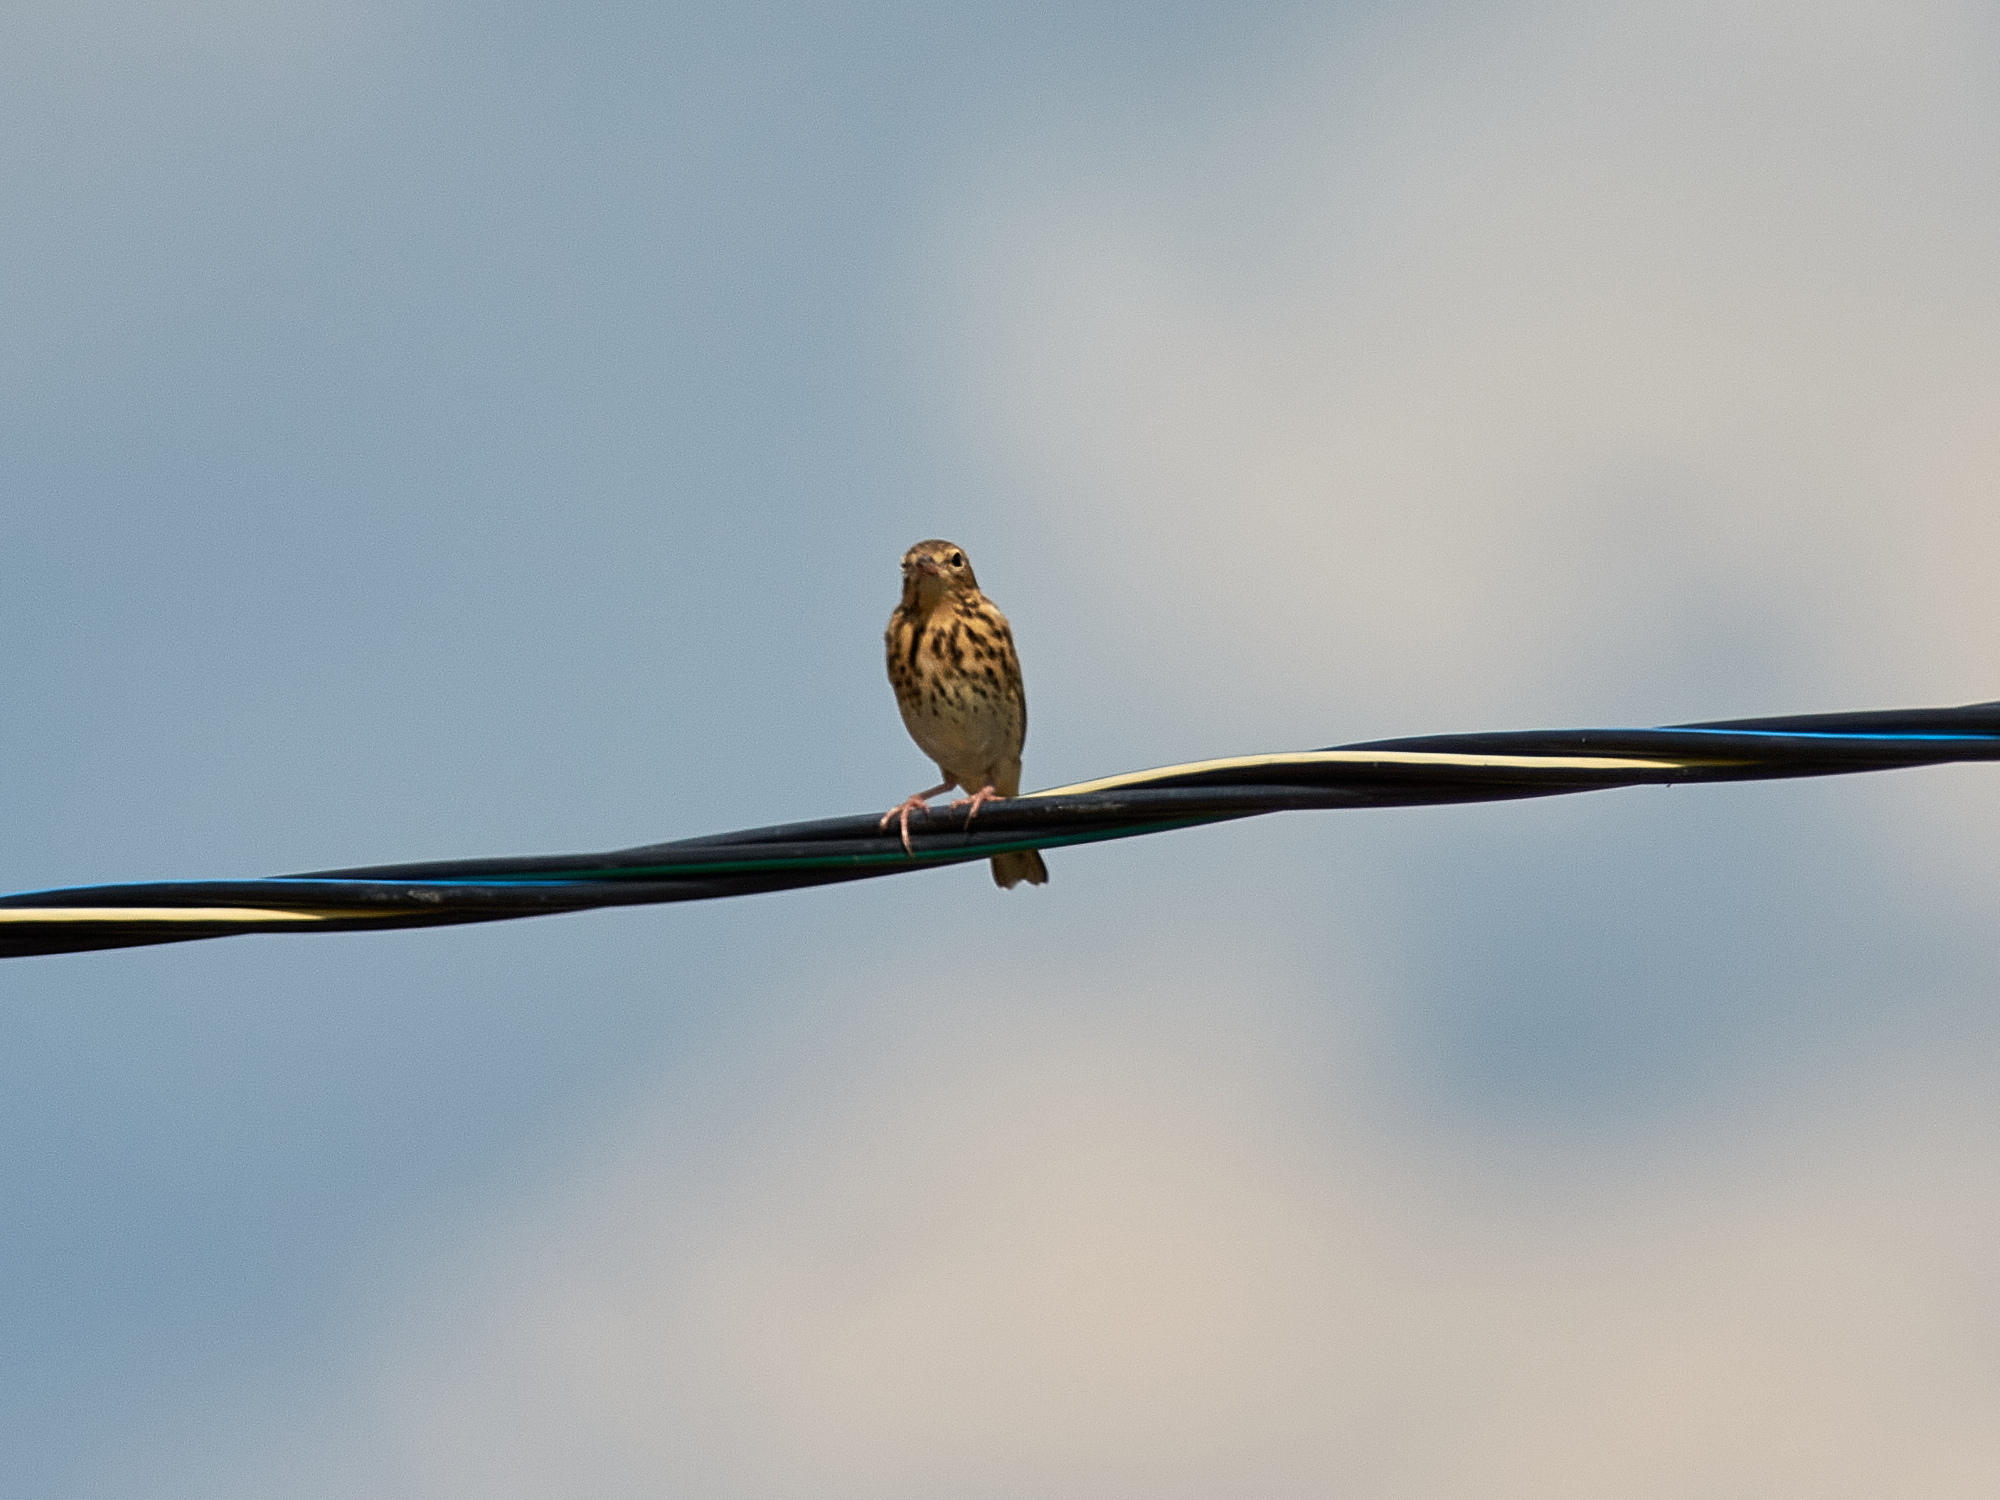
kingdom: Animalia
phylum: Chordata
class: Aves
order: Passeriformes
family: Motacillidae
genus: Anthus
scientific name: Anthus trivialis
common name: Tree pipit
